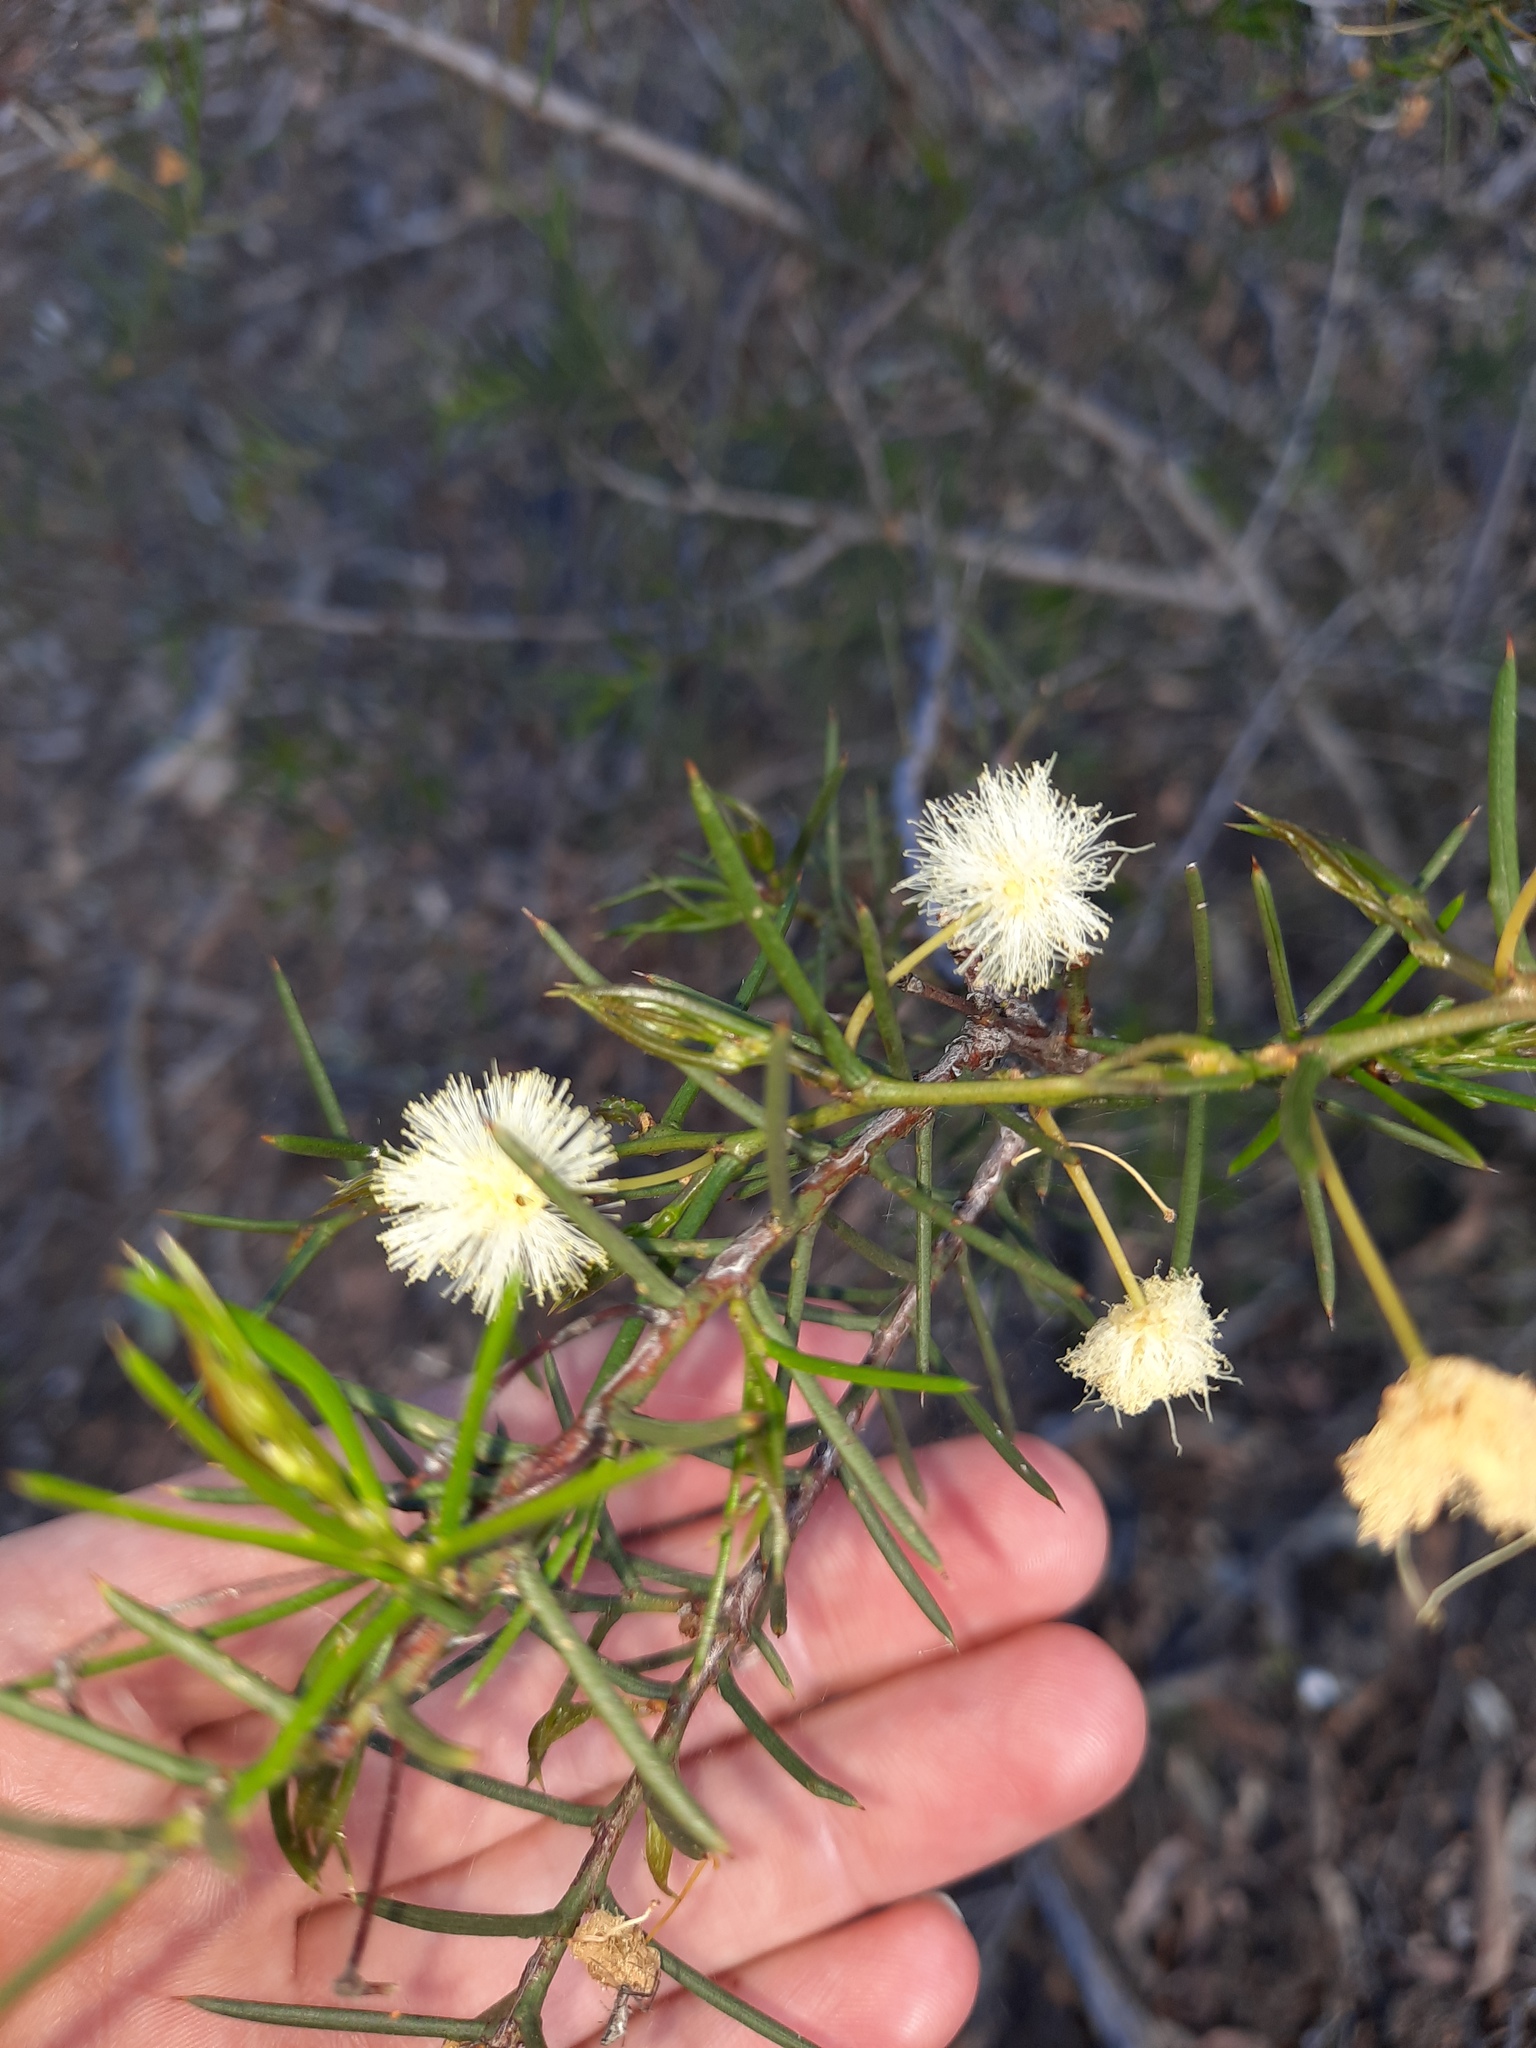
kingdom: Plantae
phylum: Tracheophyta
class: Magnoliopsida
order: Fabales
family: Fabaceae
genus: Acacia
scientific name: Acacia genistifolia
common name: Early wattle
